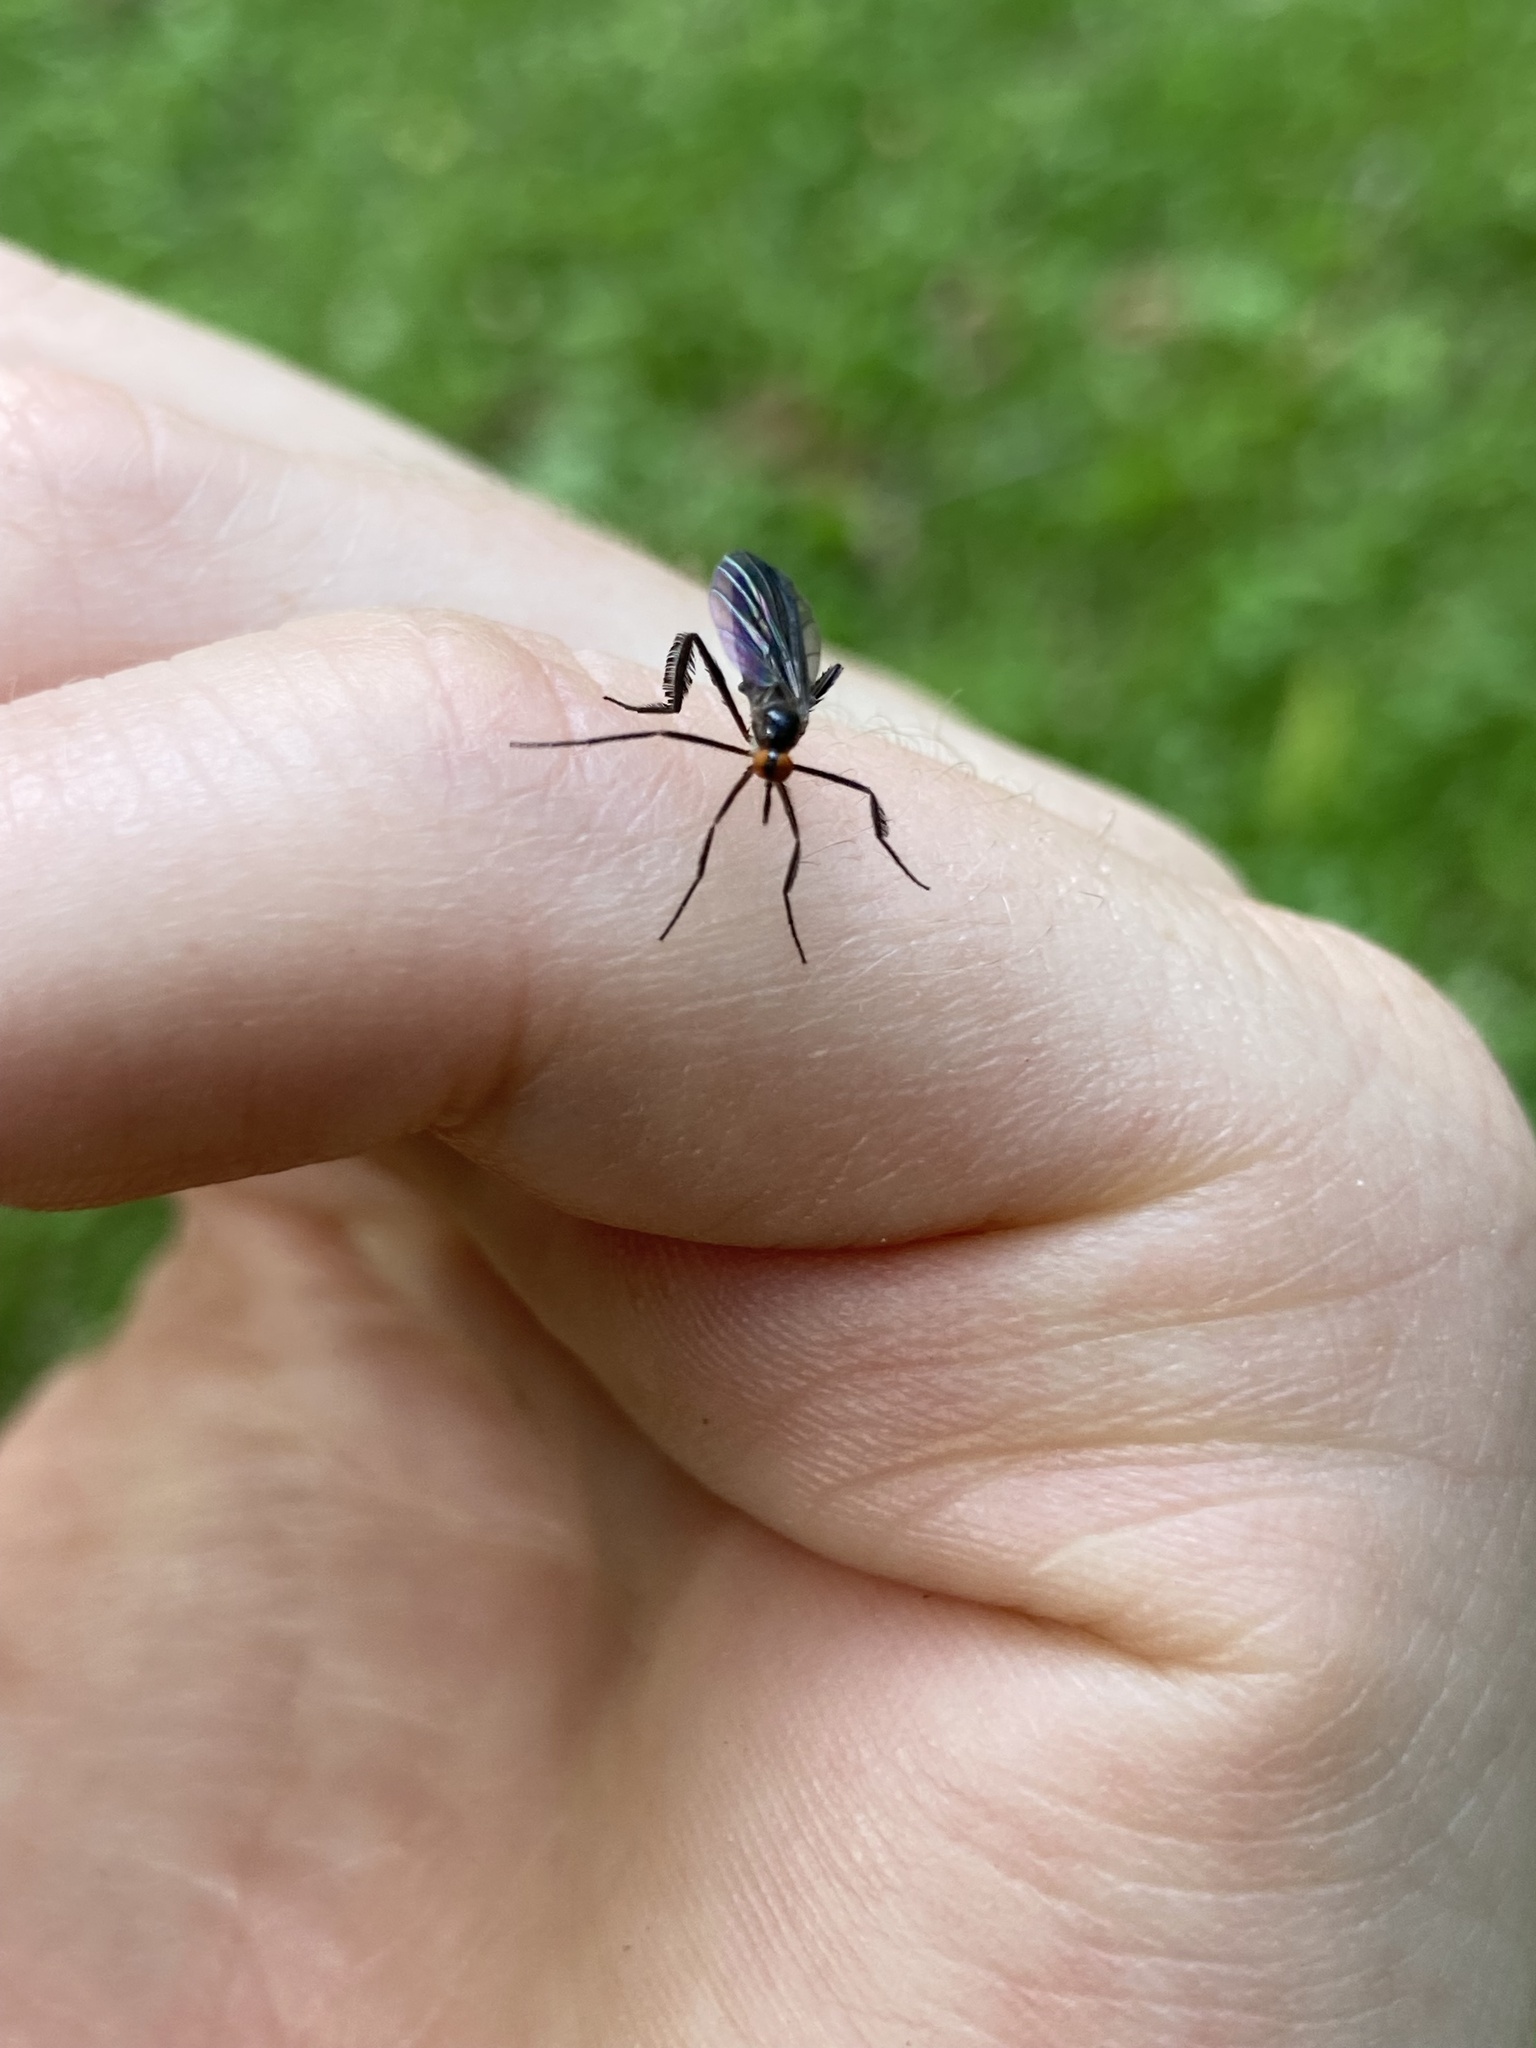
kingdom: Animalia
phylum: Arthropoda
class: Insecta
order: Diptera
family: Empididae
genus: Rhamphomyia
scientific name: Rhamphomyia longicauda
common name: Long-tailed dance fly
